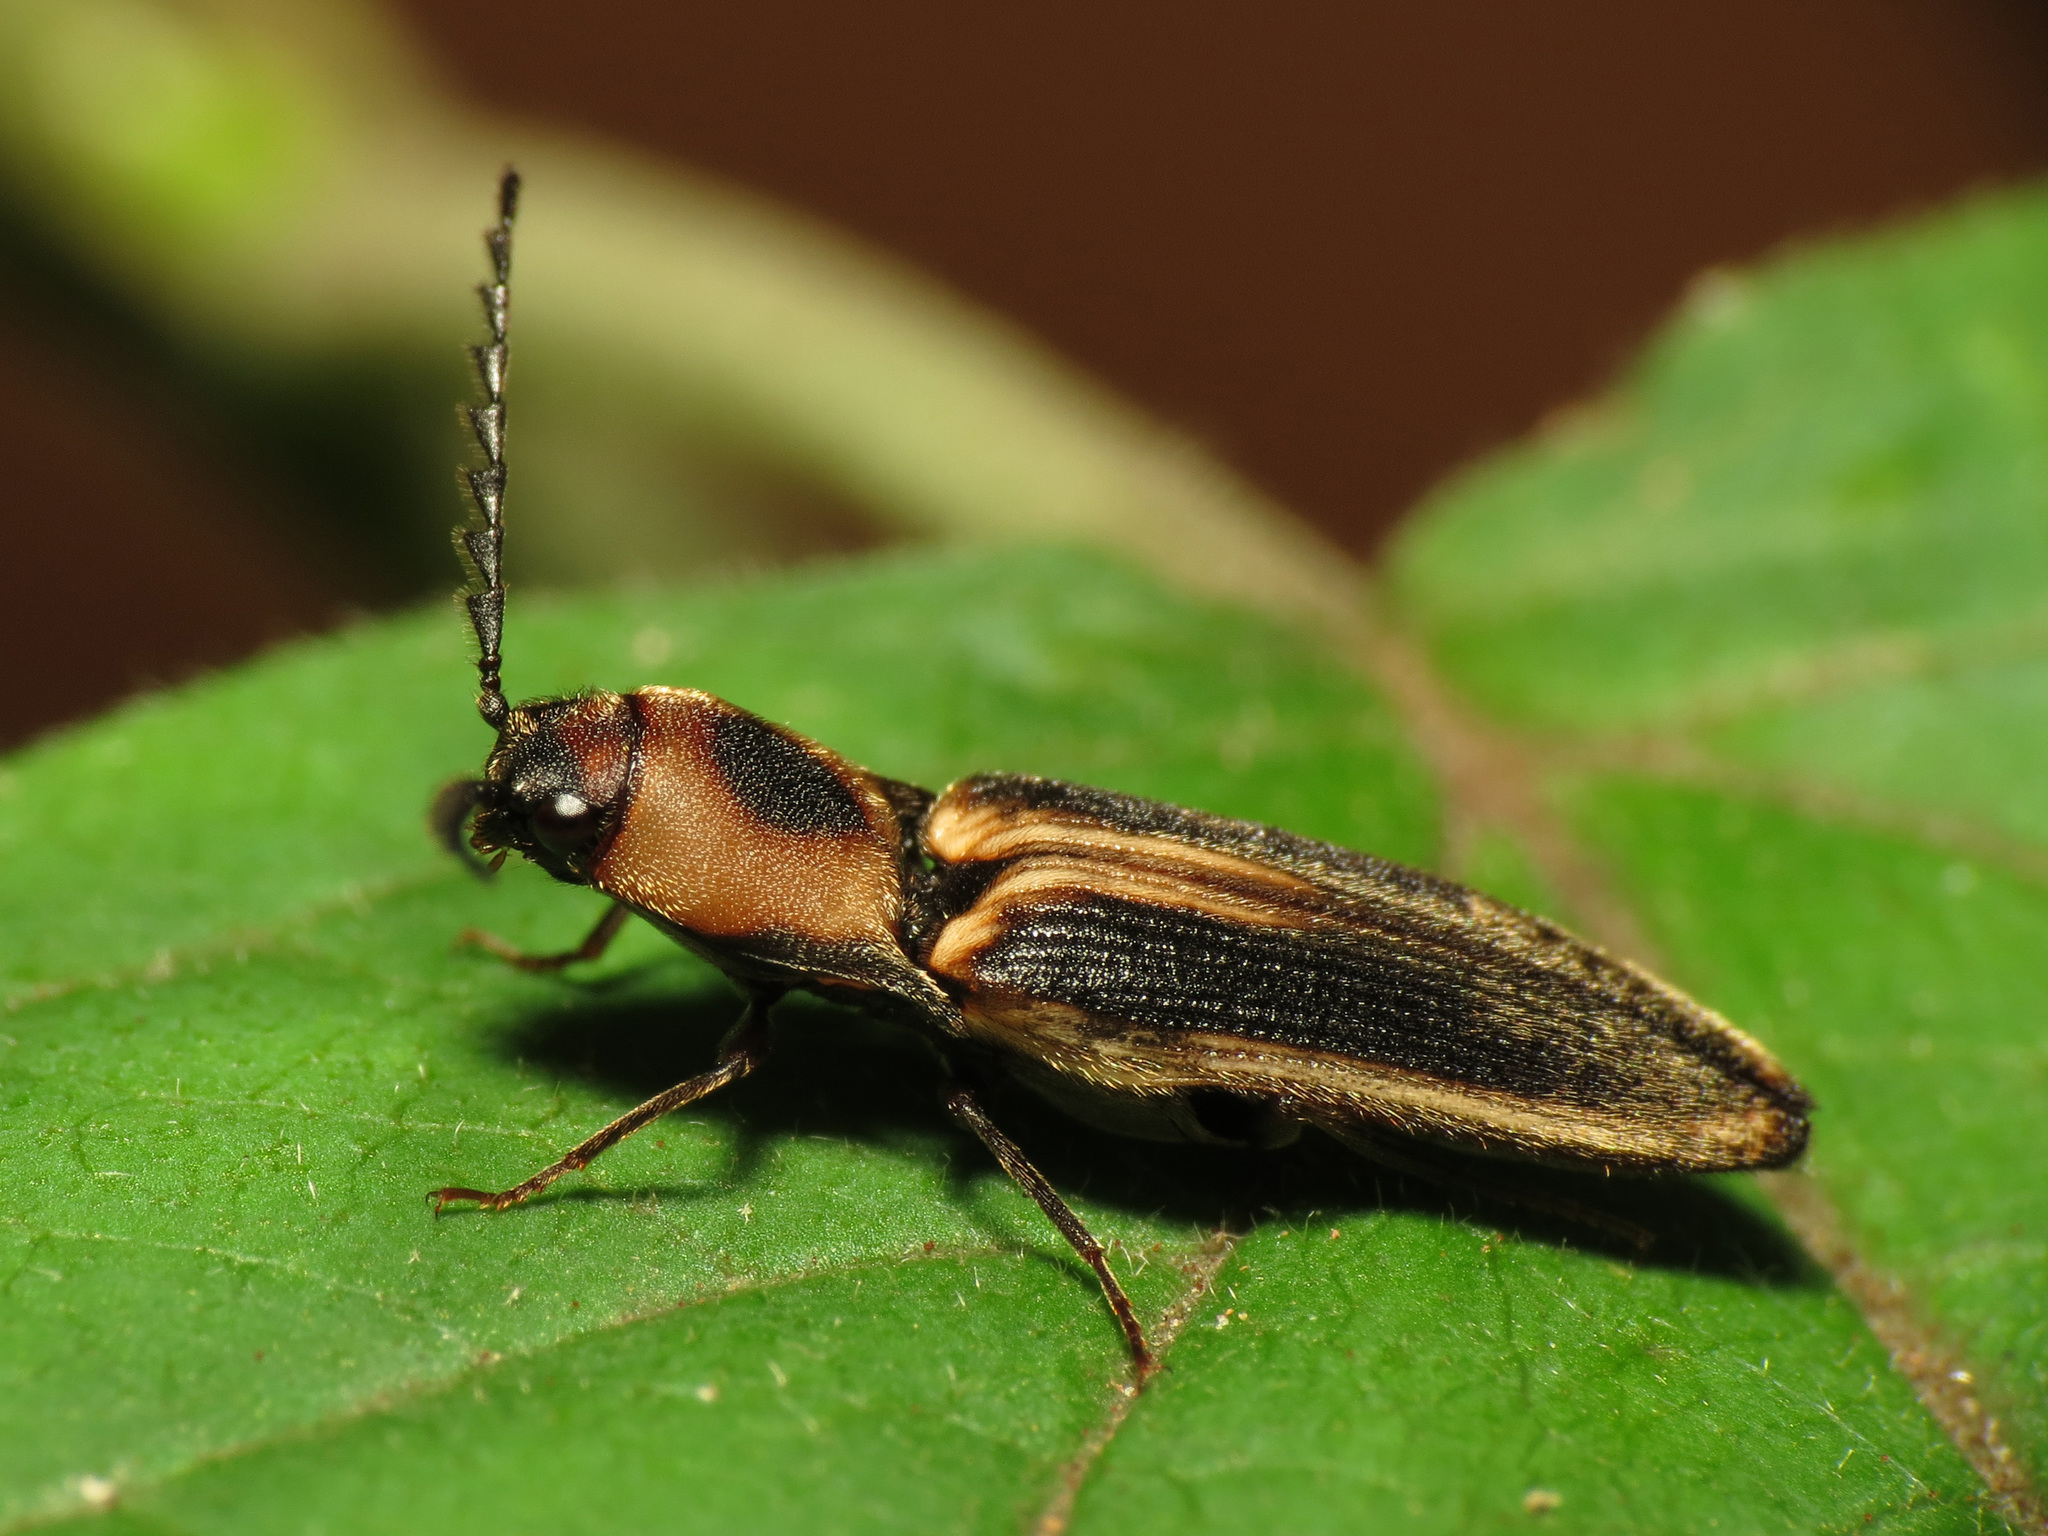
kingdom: Animalia
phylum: Arthropoda
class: Insecta
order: Coleoptera
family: Elateridae
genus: Megapenthes
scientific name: Megapenthes
